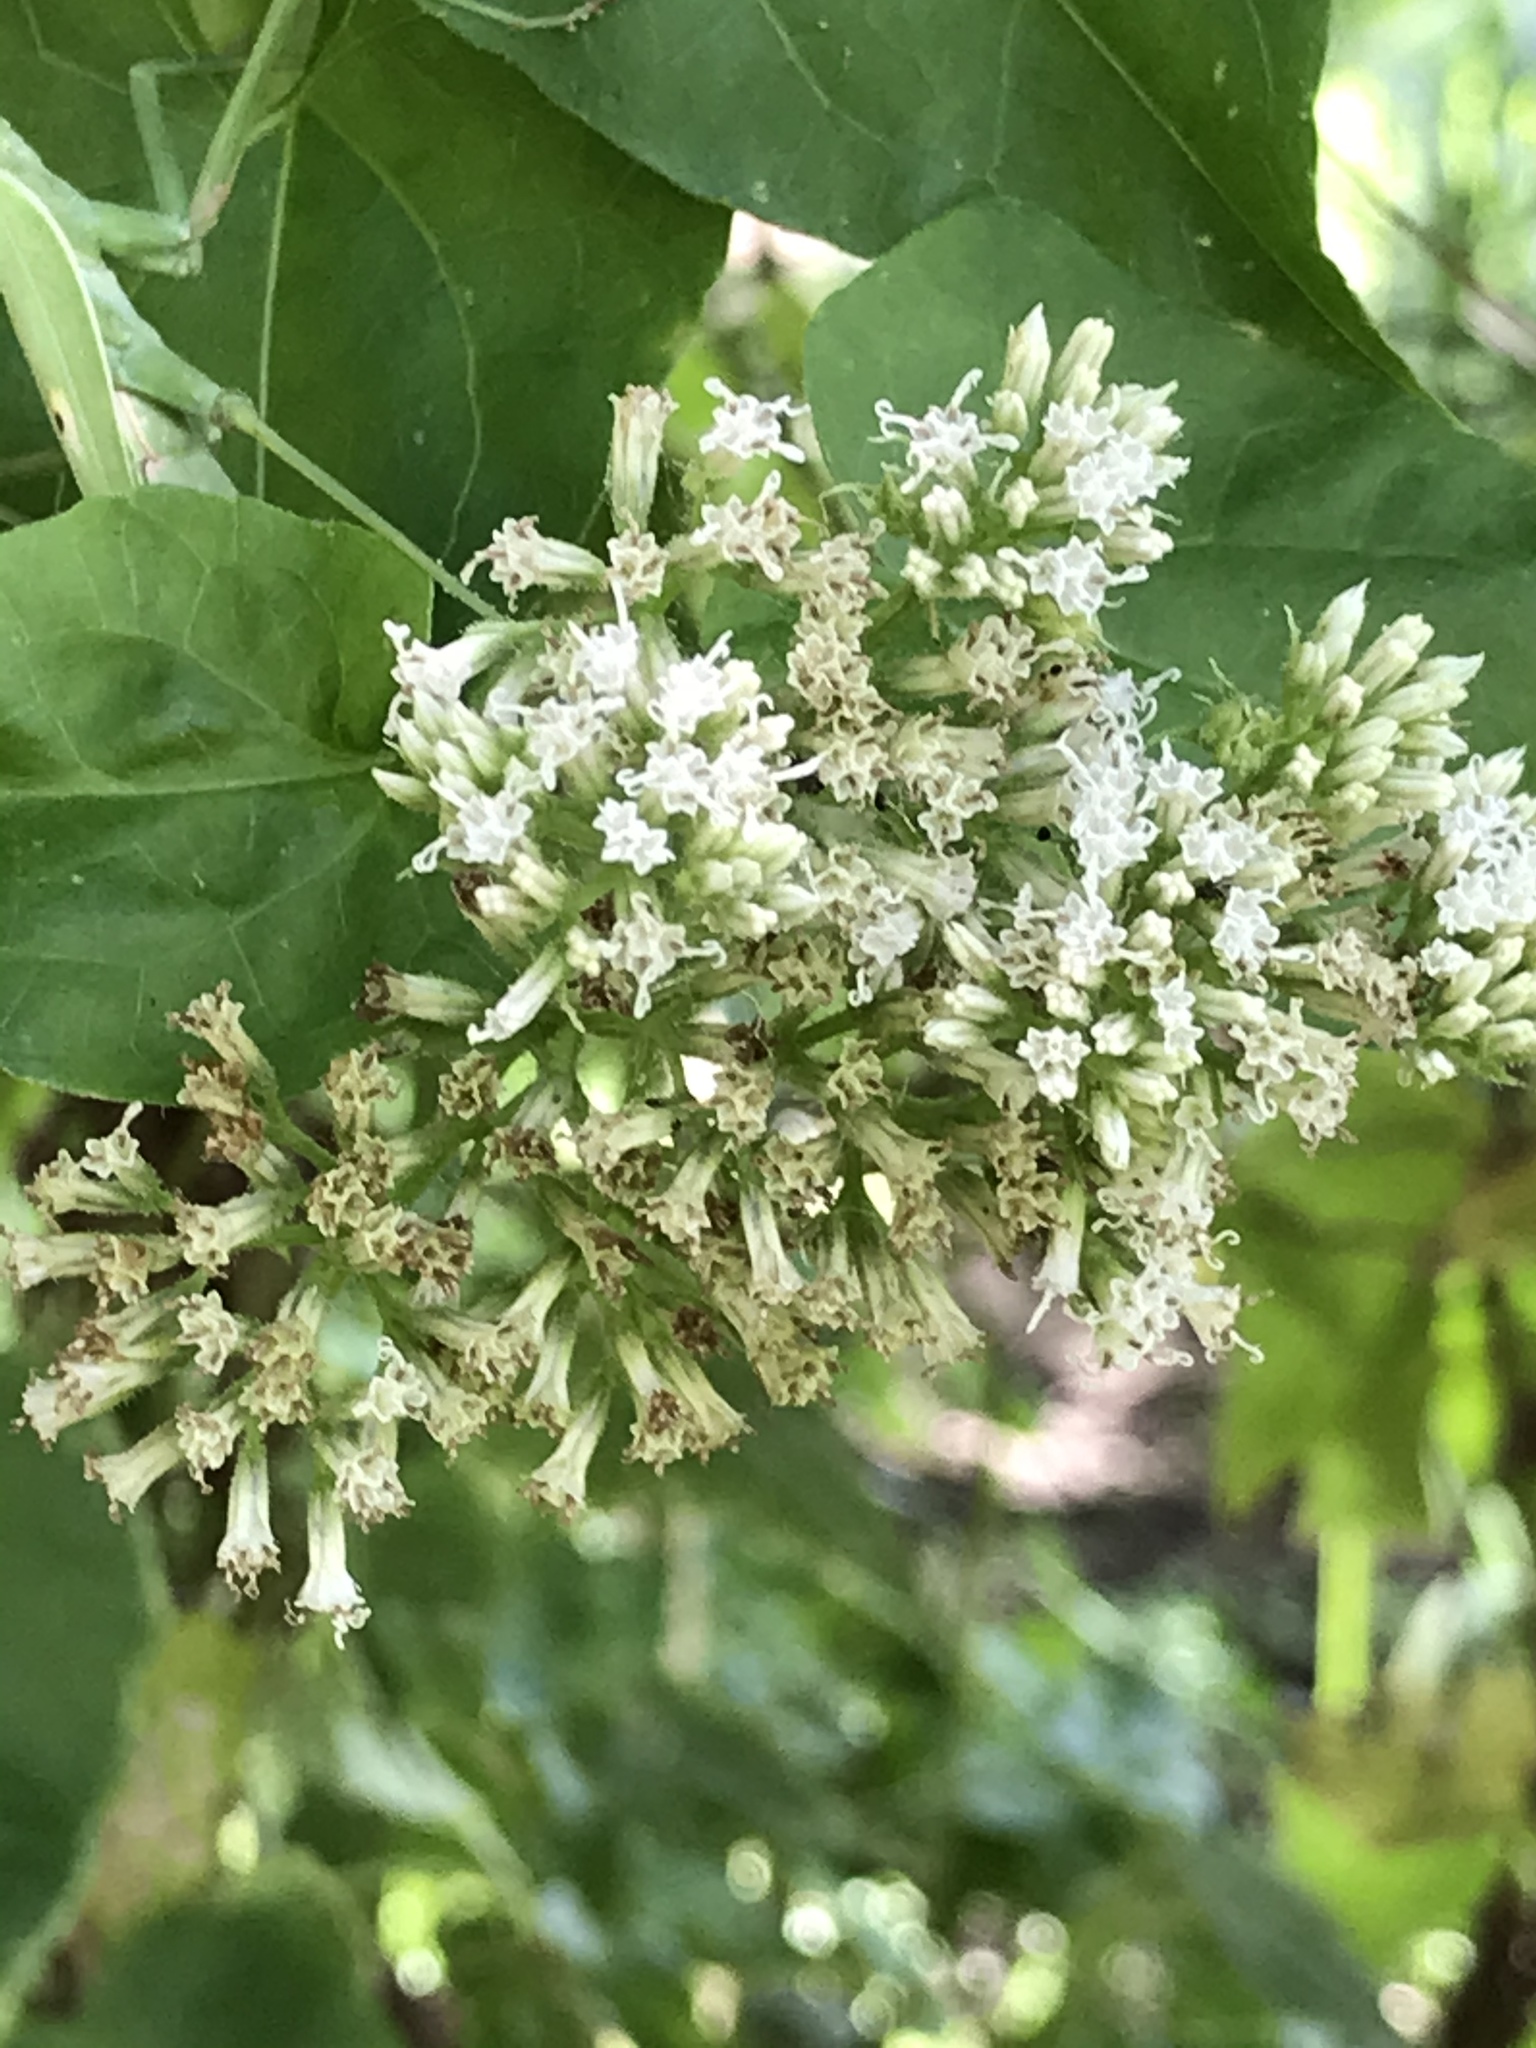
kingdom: Plantae
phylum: Tracheophyta
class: Magnoliopsida
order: Asterales
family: Asteraceae
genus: Mikania
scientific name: Mikania scandens
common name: Climbing hempvine
